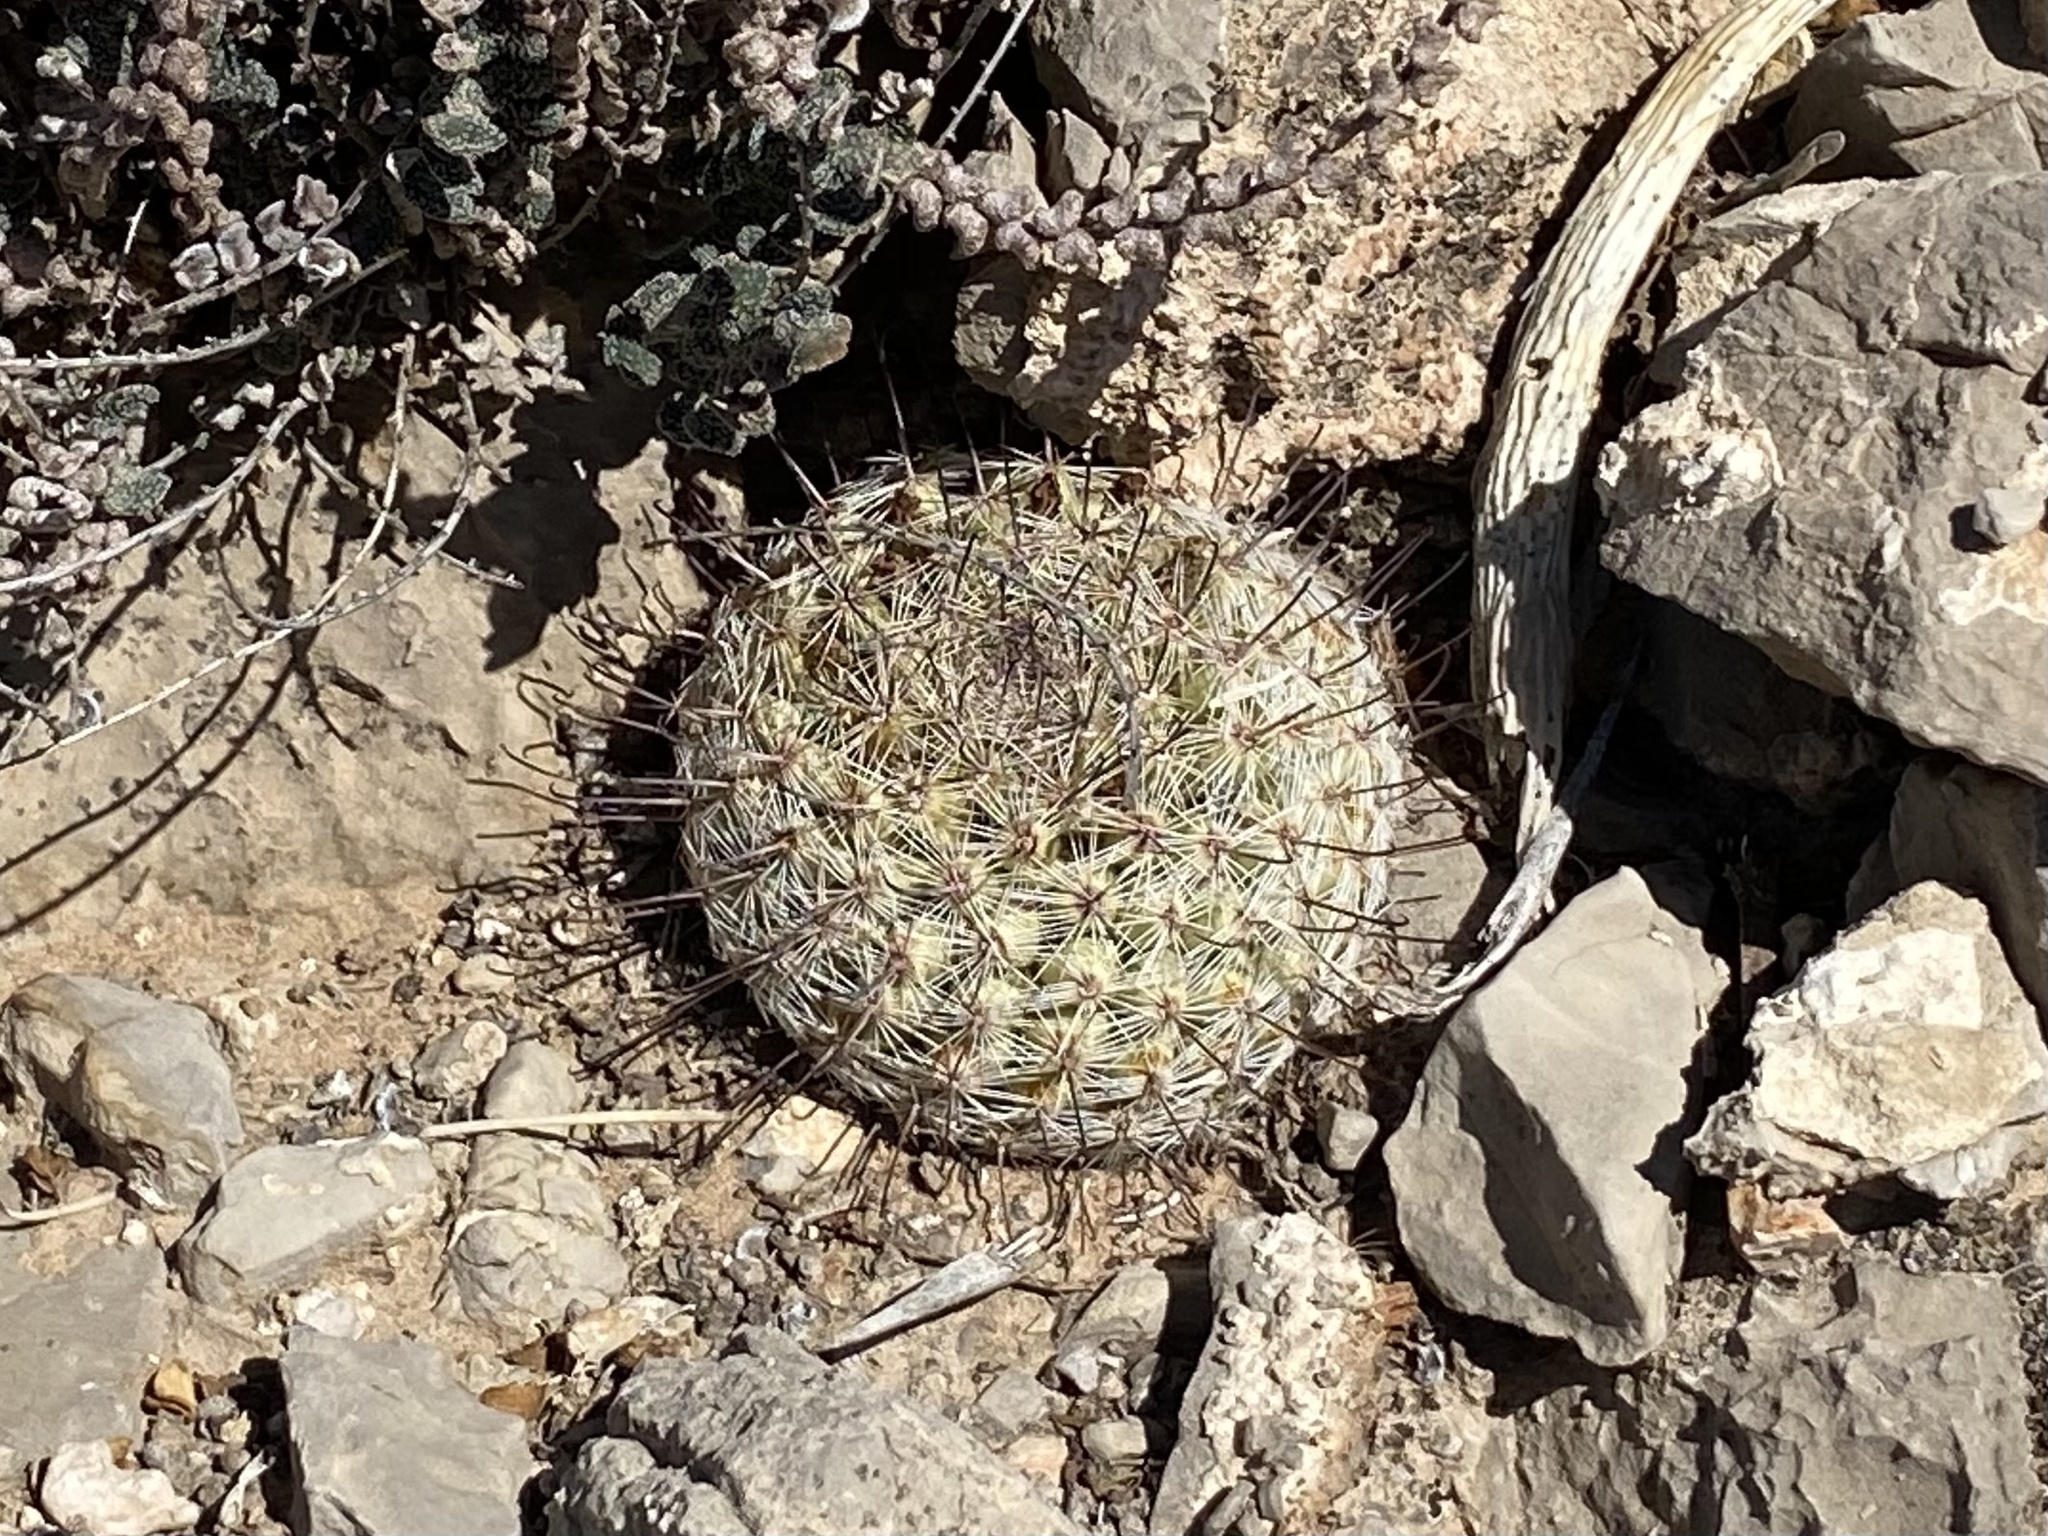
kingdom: Plantae
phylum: Tracheophyta
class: Magnoliopsida
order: Caryophyllales
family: Cactaceae
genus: Cochemiea
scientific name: Cochemiea grahamii
